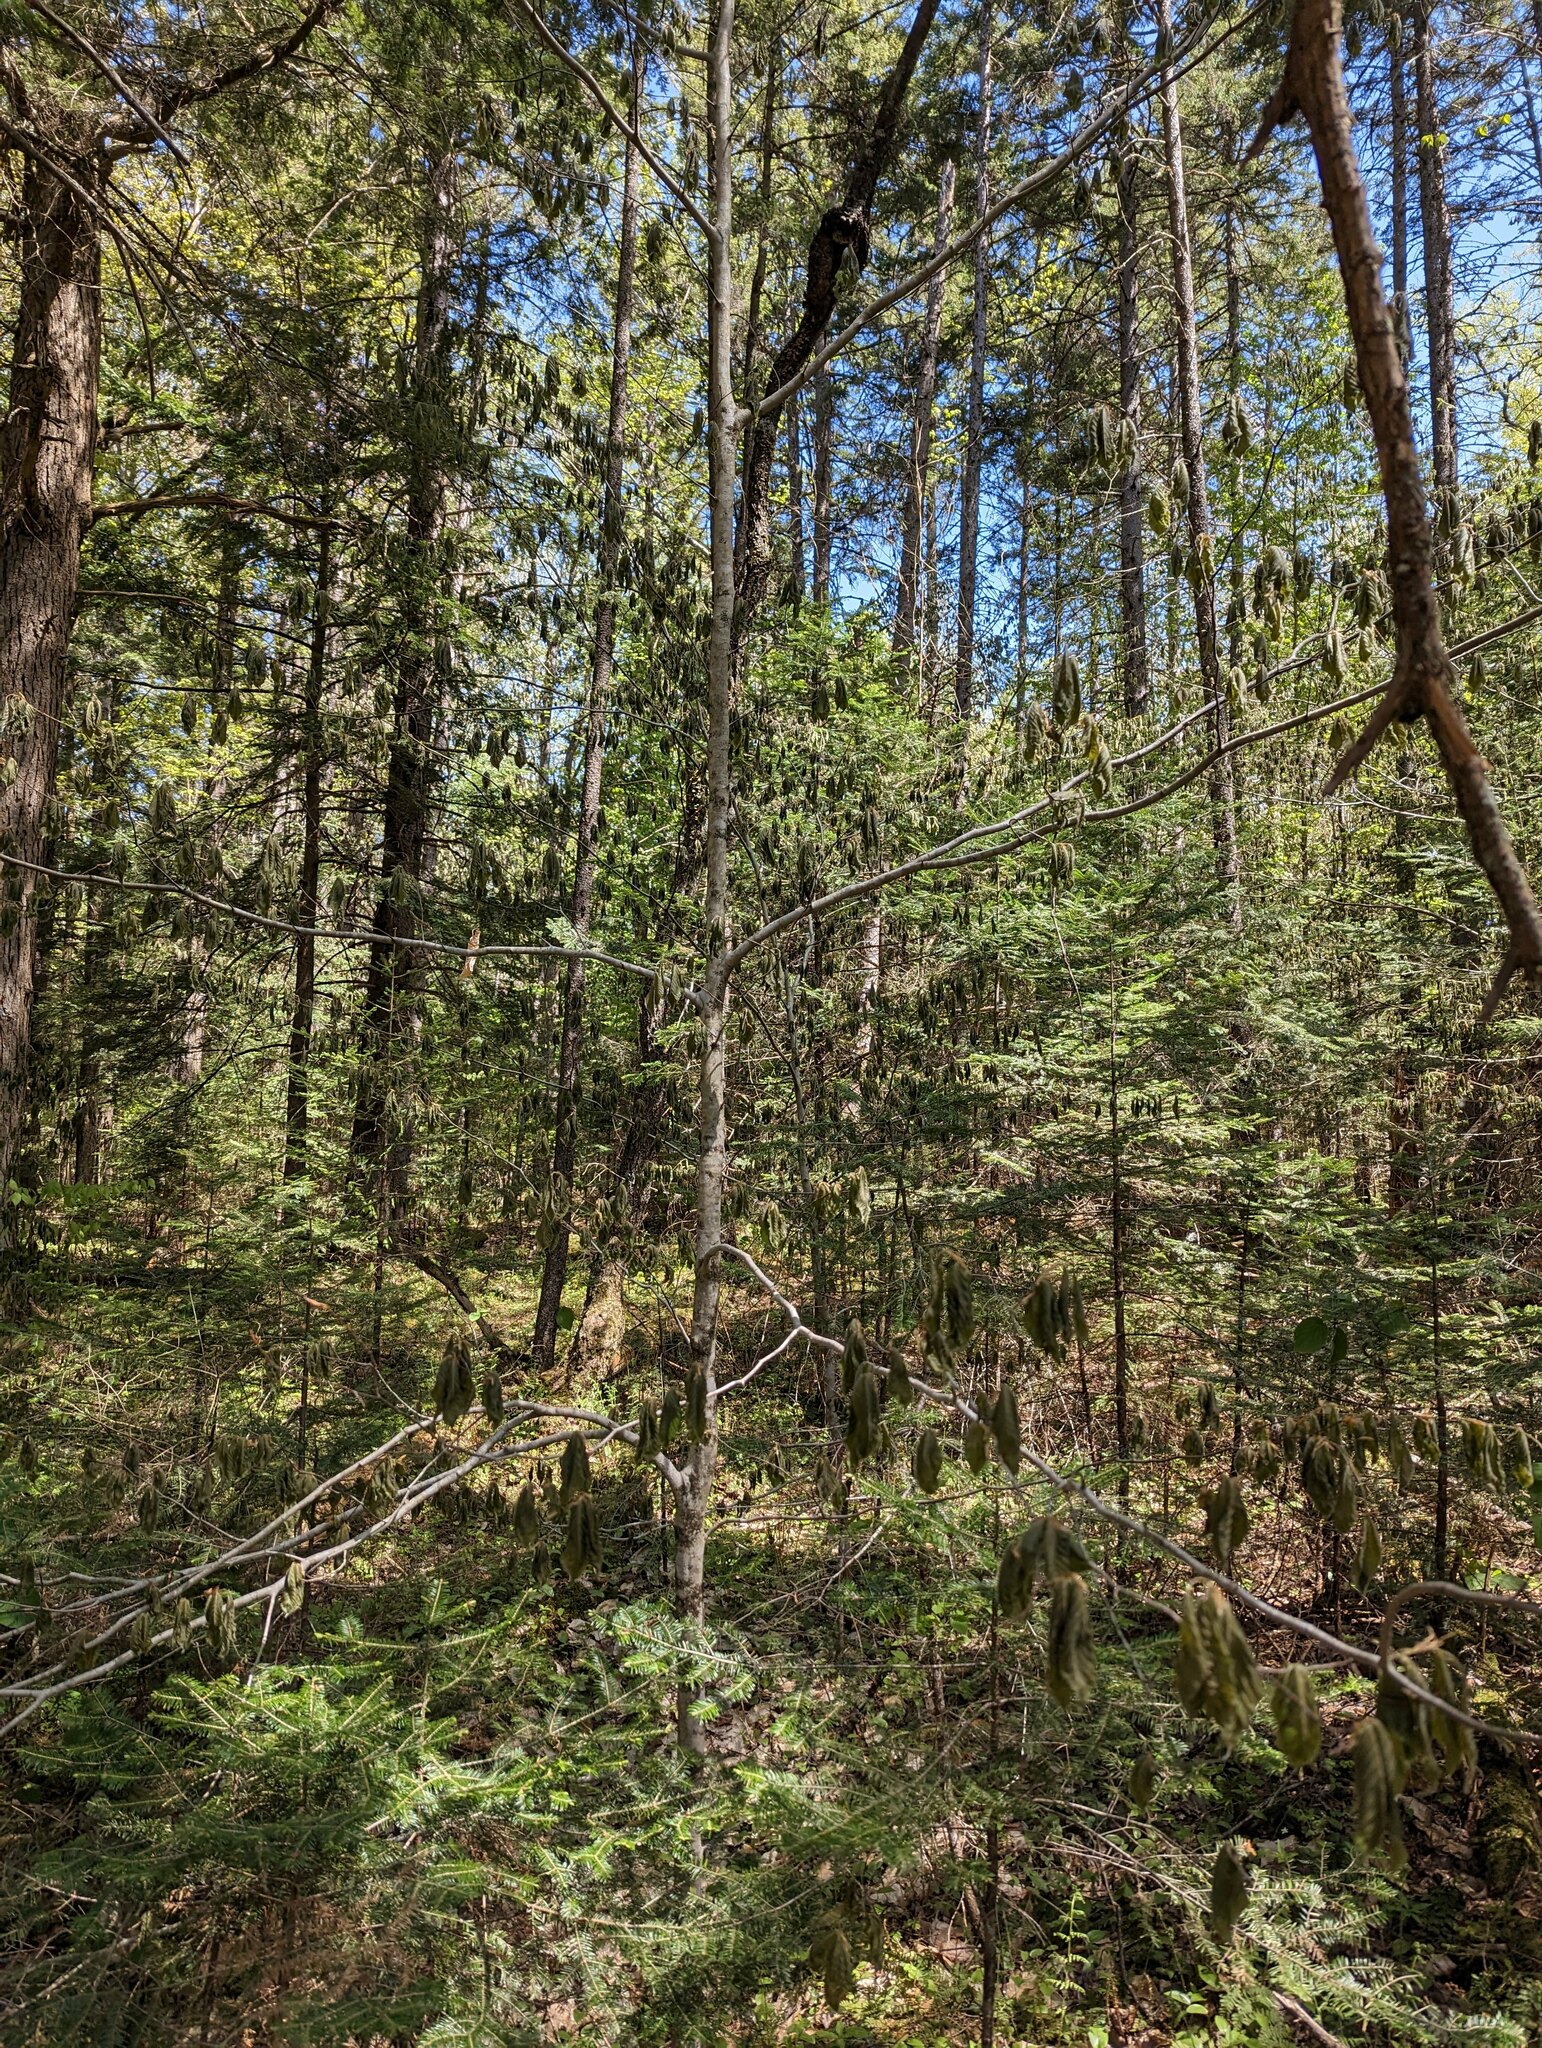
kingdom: Plantae
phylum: Tracheophyta
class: Magnoliopsida
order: Fagales
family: Fagaceae
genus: Fagus
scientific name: Fagus grandifolia
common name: American beech
